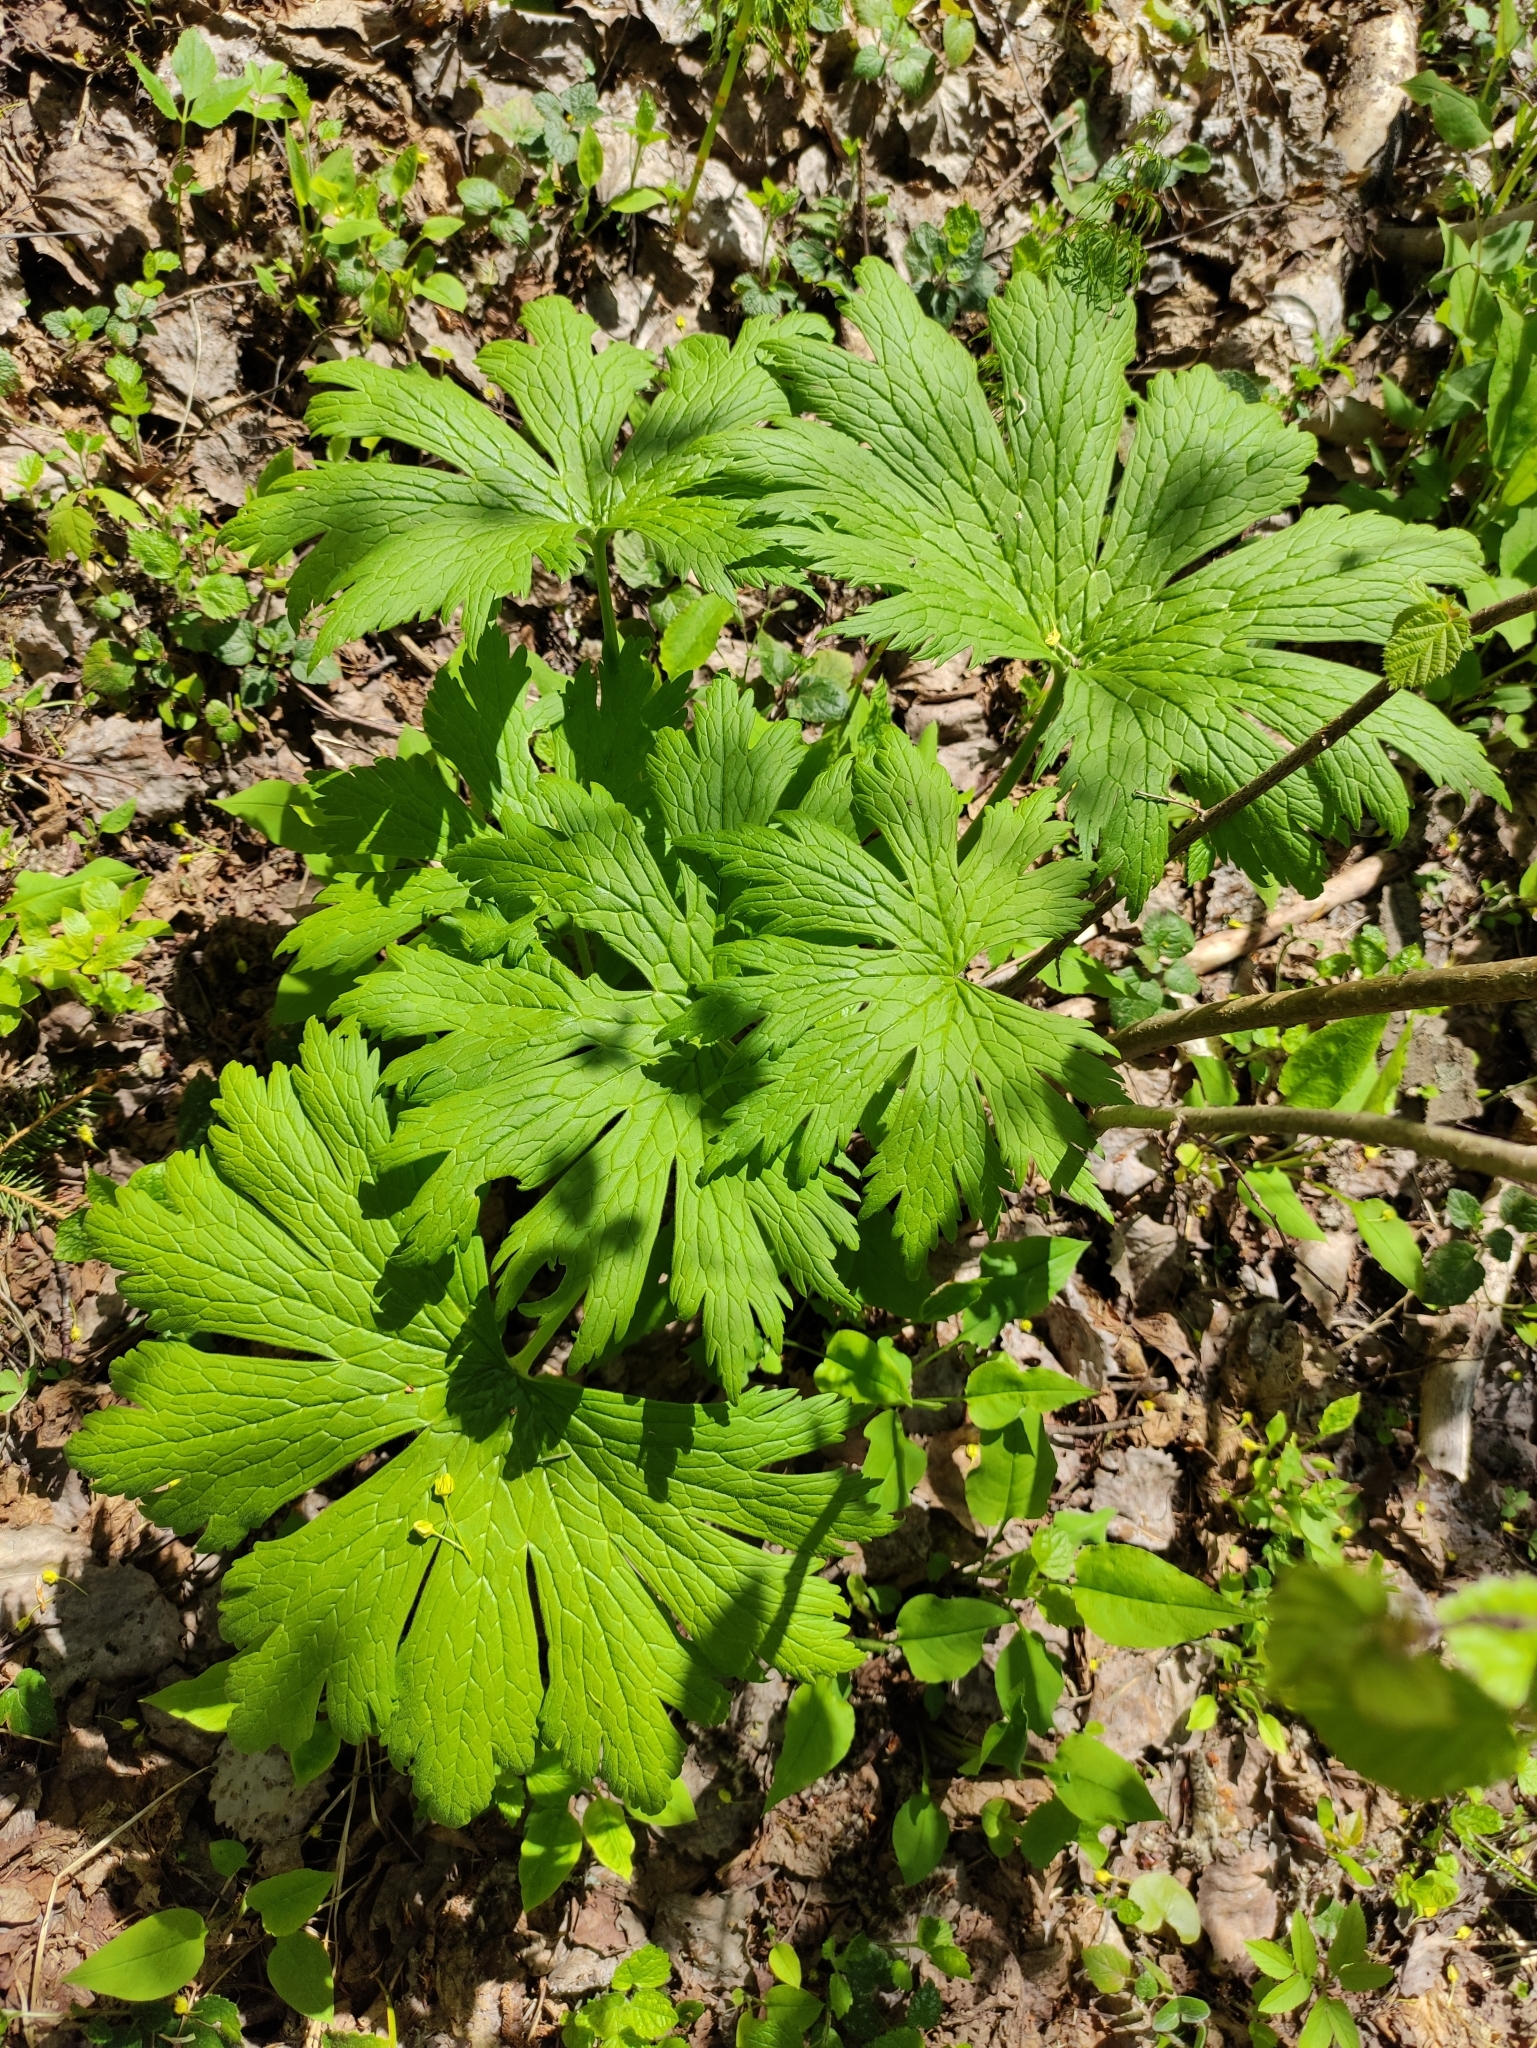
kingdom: Plantae
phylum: Tracheophyta
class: Magnoliopsida
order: Ranunculales
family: Ranunculaceae
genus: Aconitum
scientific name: Aconitum septentrionale
